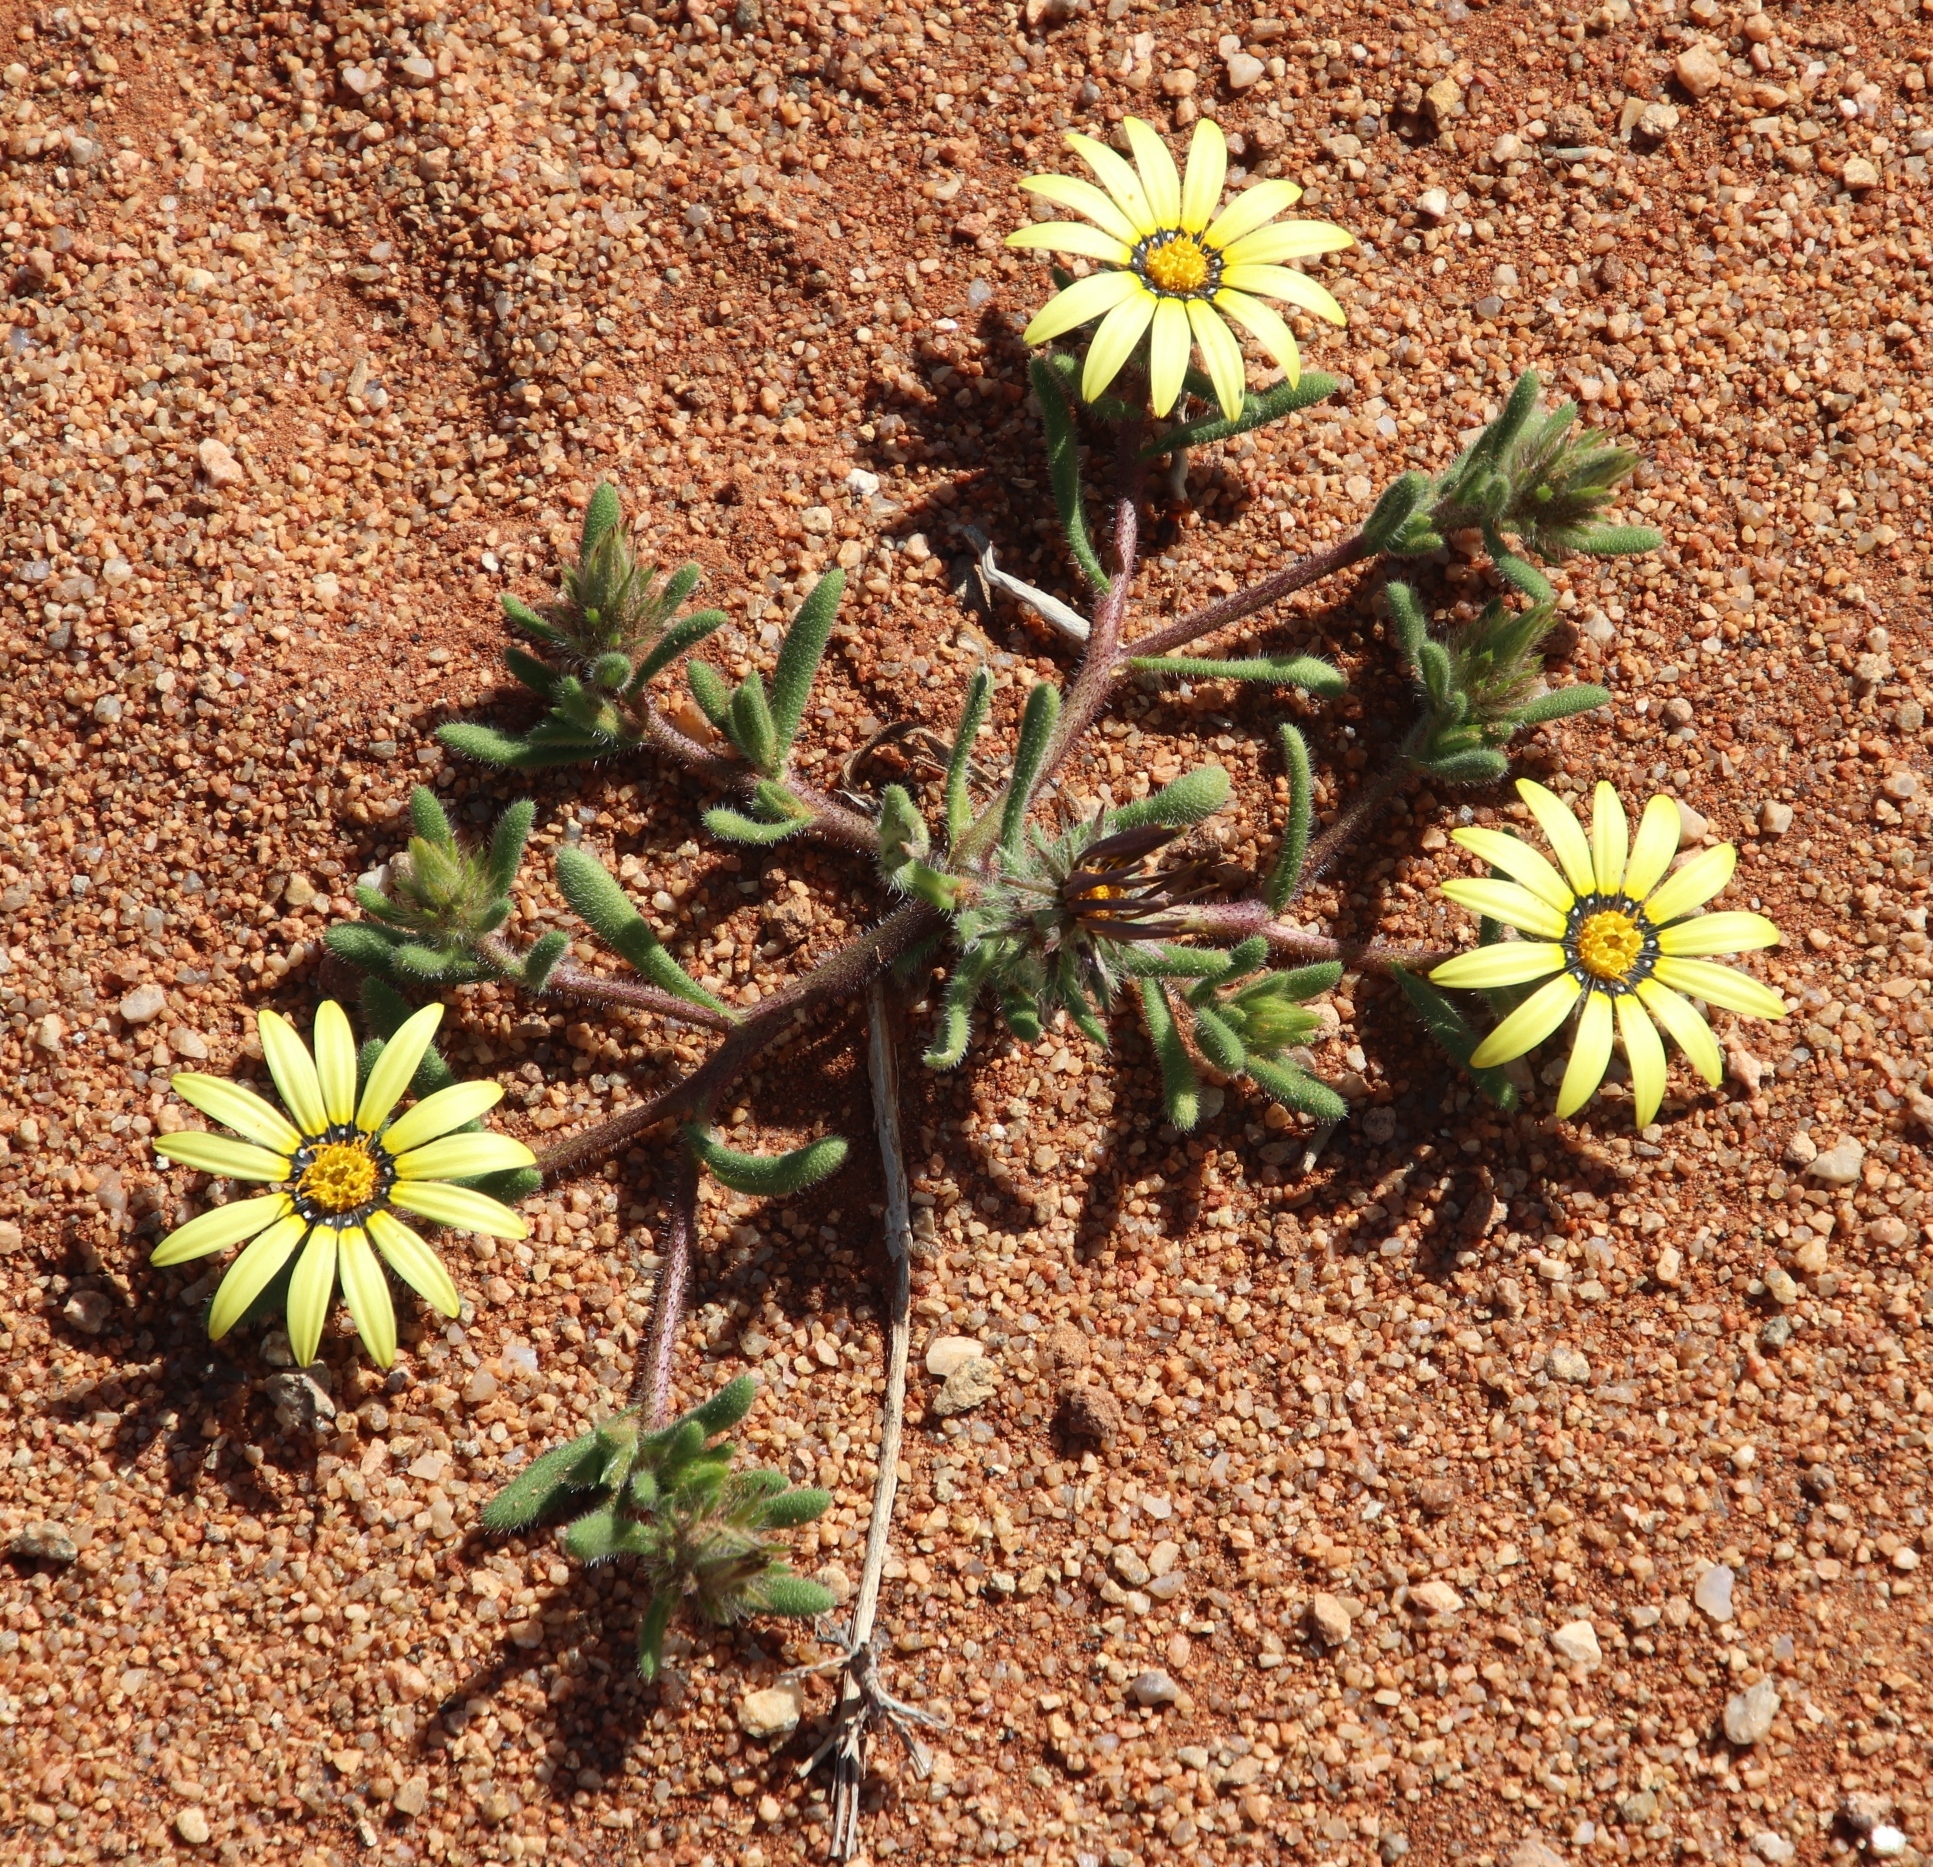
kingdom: Plantae
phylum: Tracheophyta
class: Magnoliopsida
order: Asterales
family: Asteraceae
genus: Gorteria
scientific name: Gorteria diffusa
